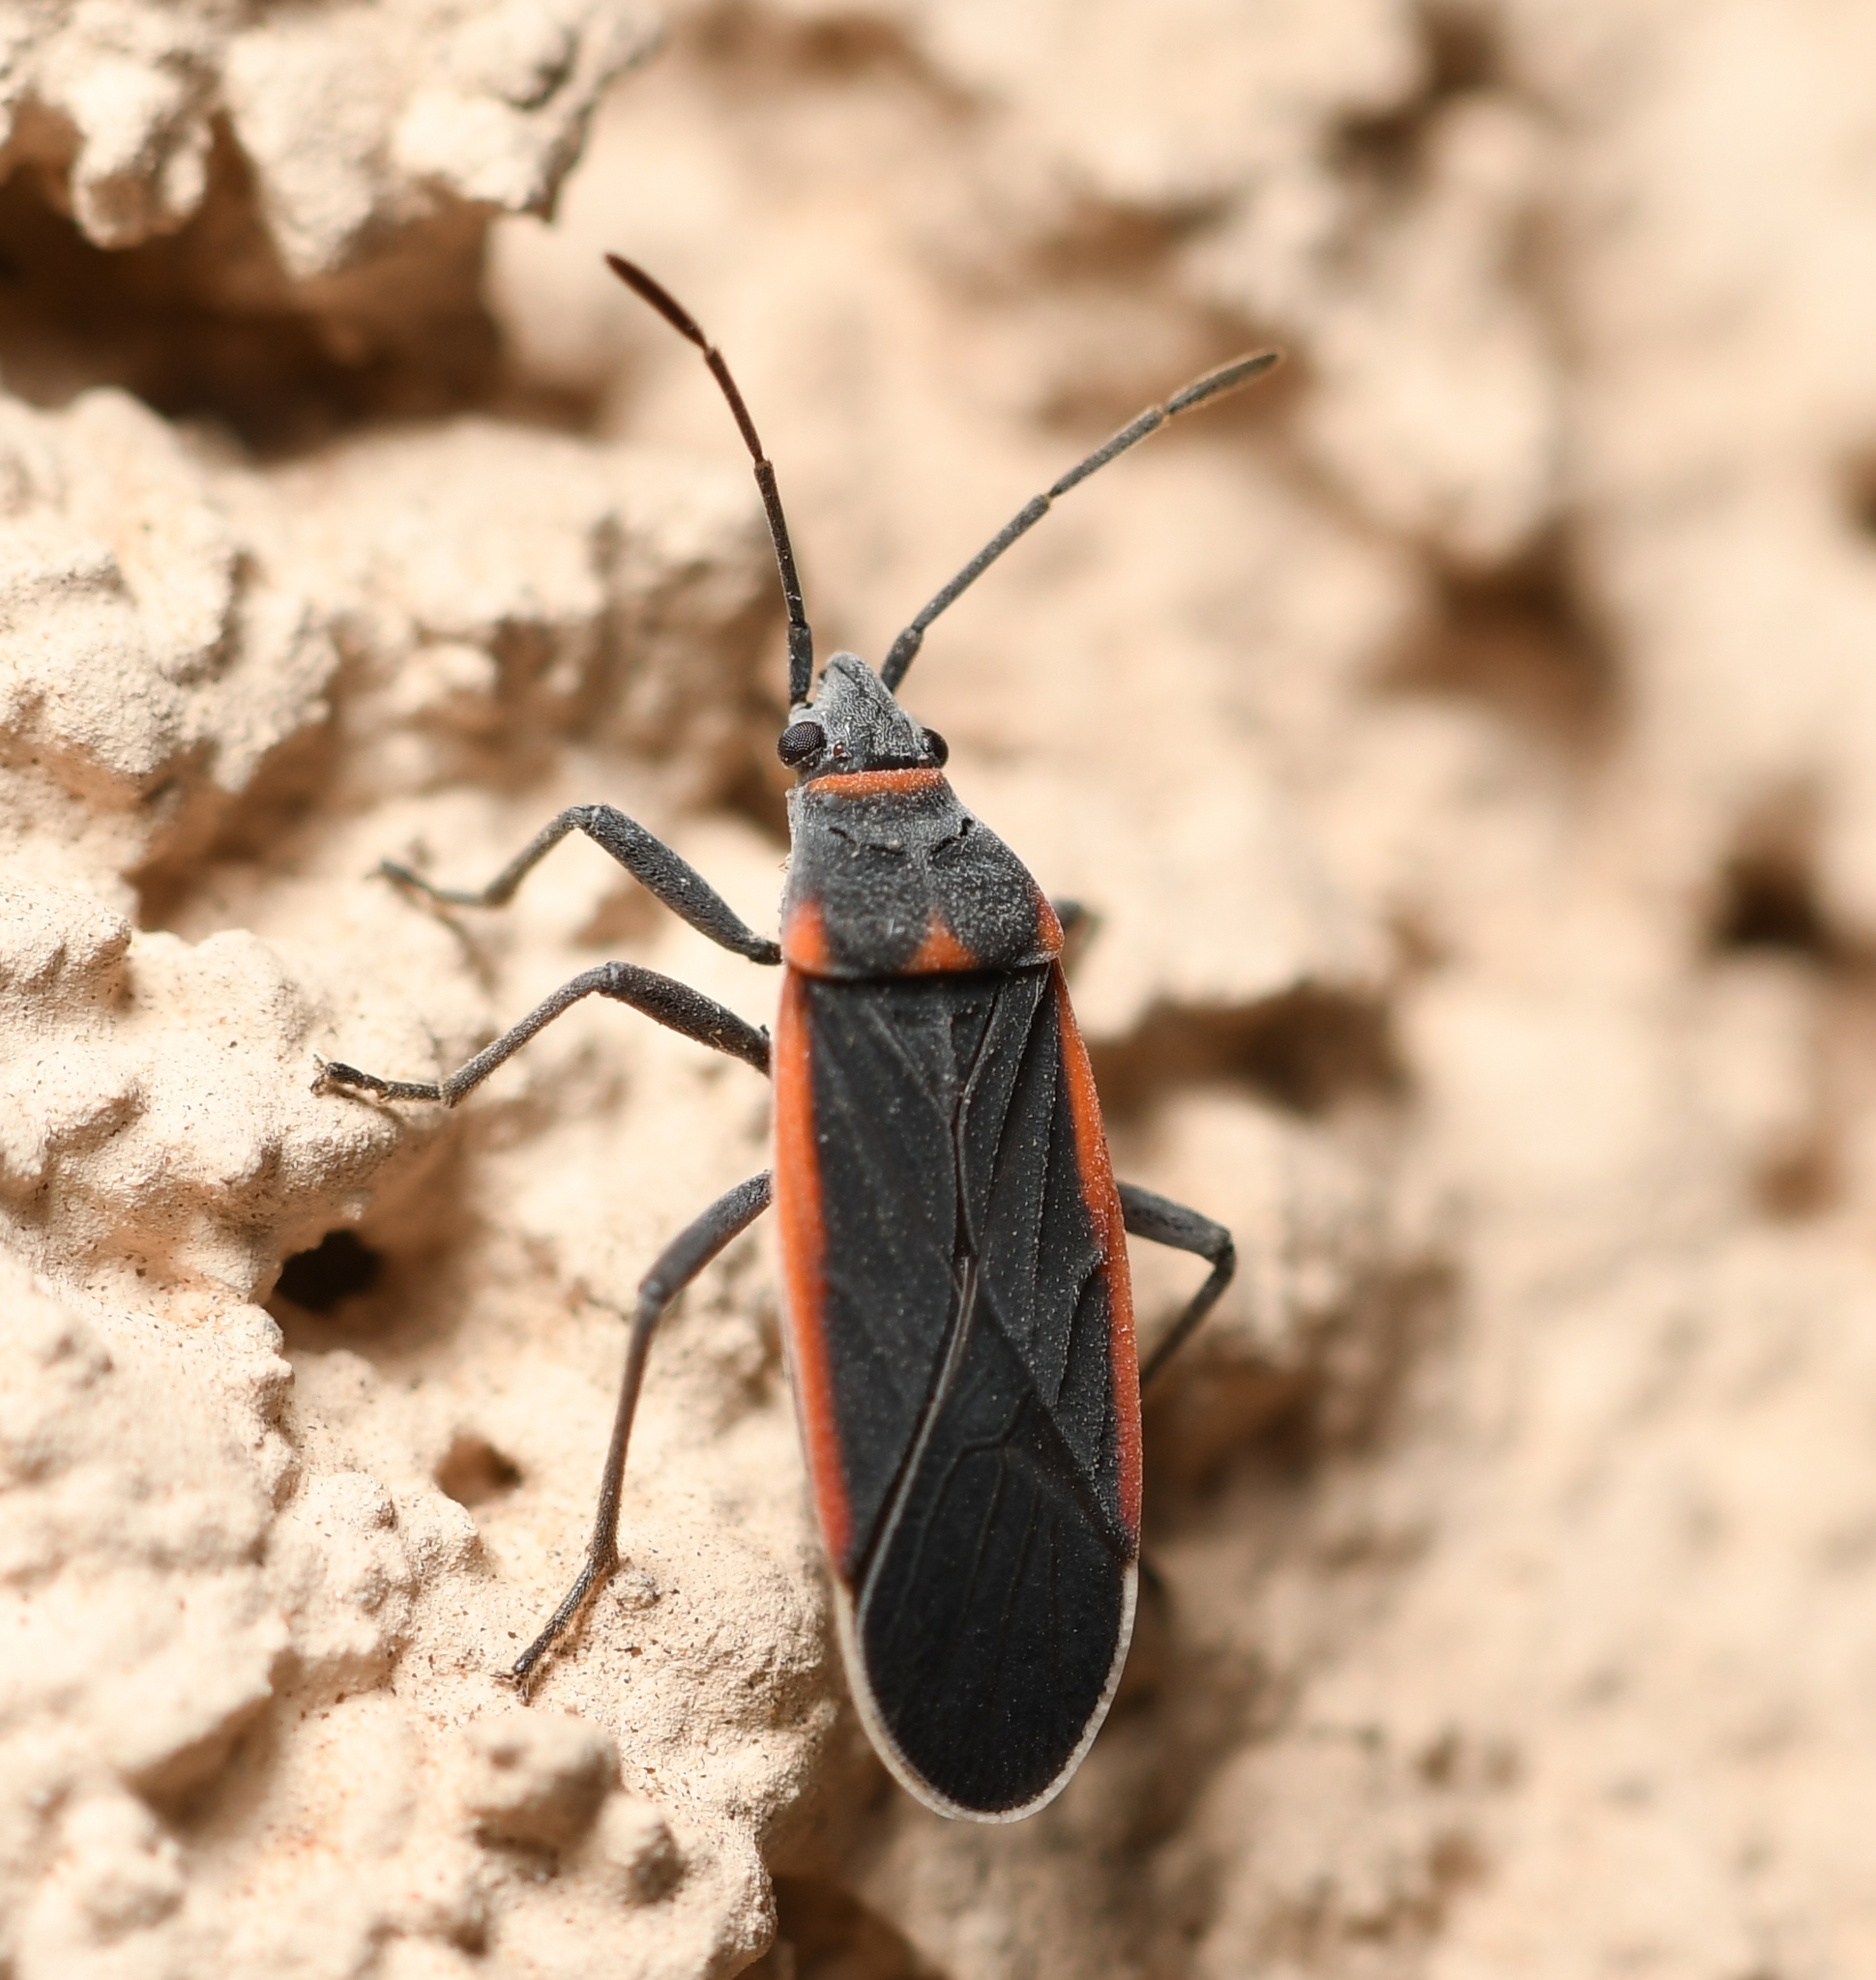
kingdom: Animalia
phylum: Arthropoda
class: Insecta
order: Hemiptera
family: Lygaeidae
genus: Melacoryphus
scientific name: Melacoryphus lateralis
